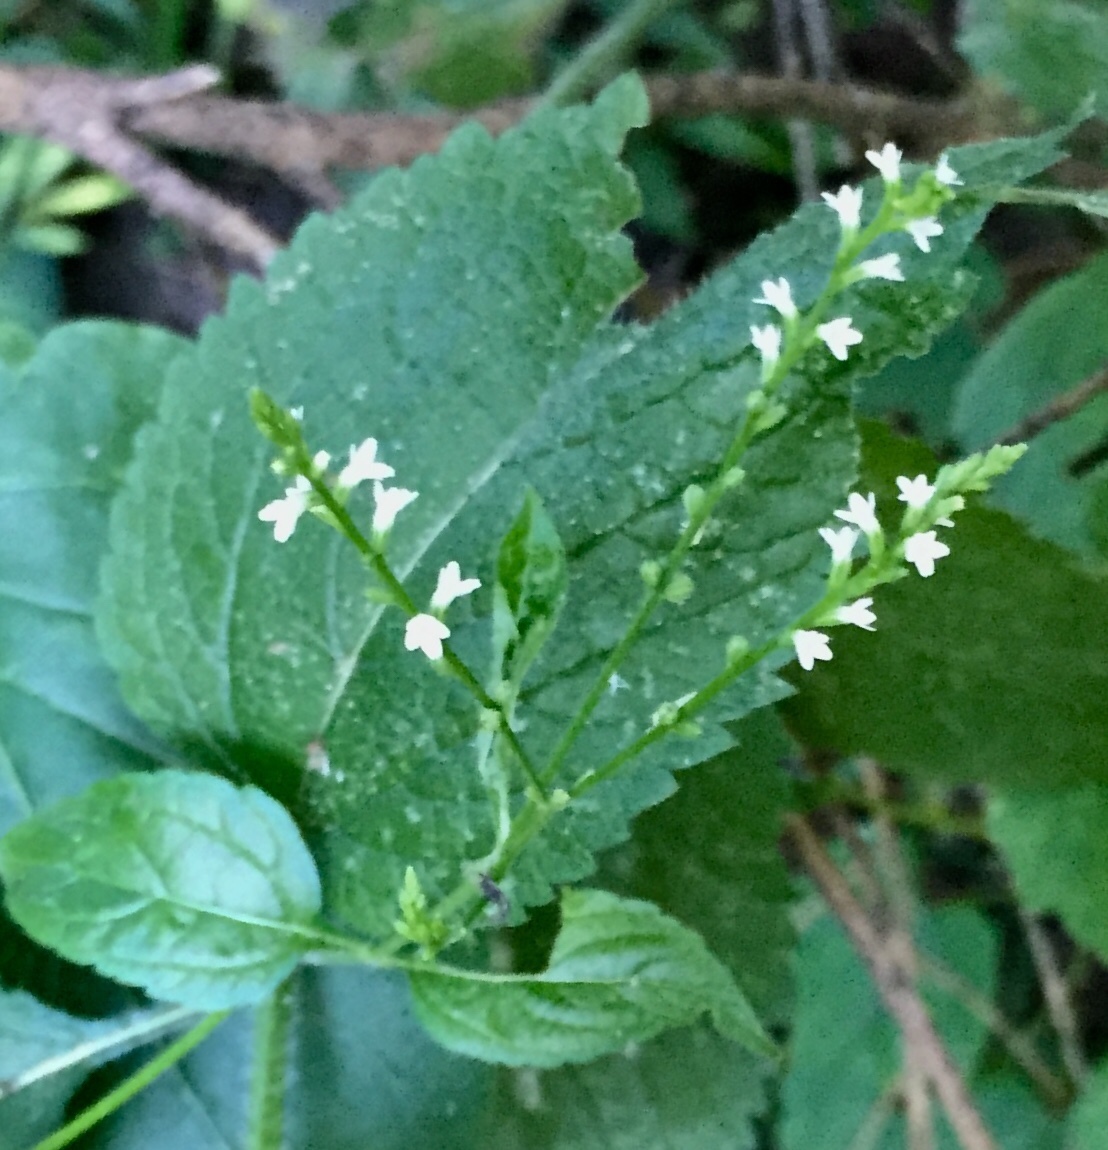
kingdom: Plantae
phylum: Tracheophyta
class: Magnoliopsida
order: Lamiales
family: Verbenaceae
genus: Verbena
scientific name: Verbena urticifolia
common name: Nettle-leaved vervain
